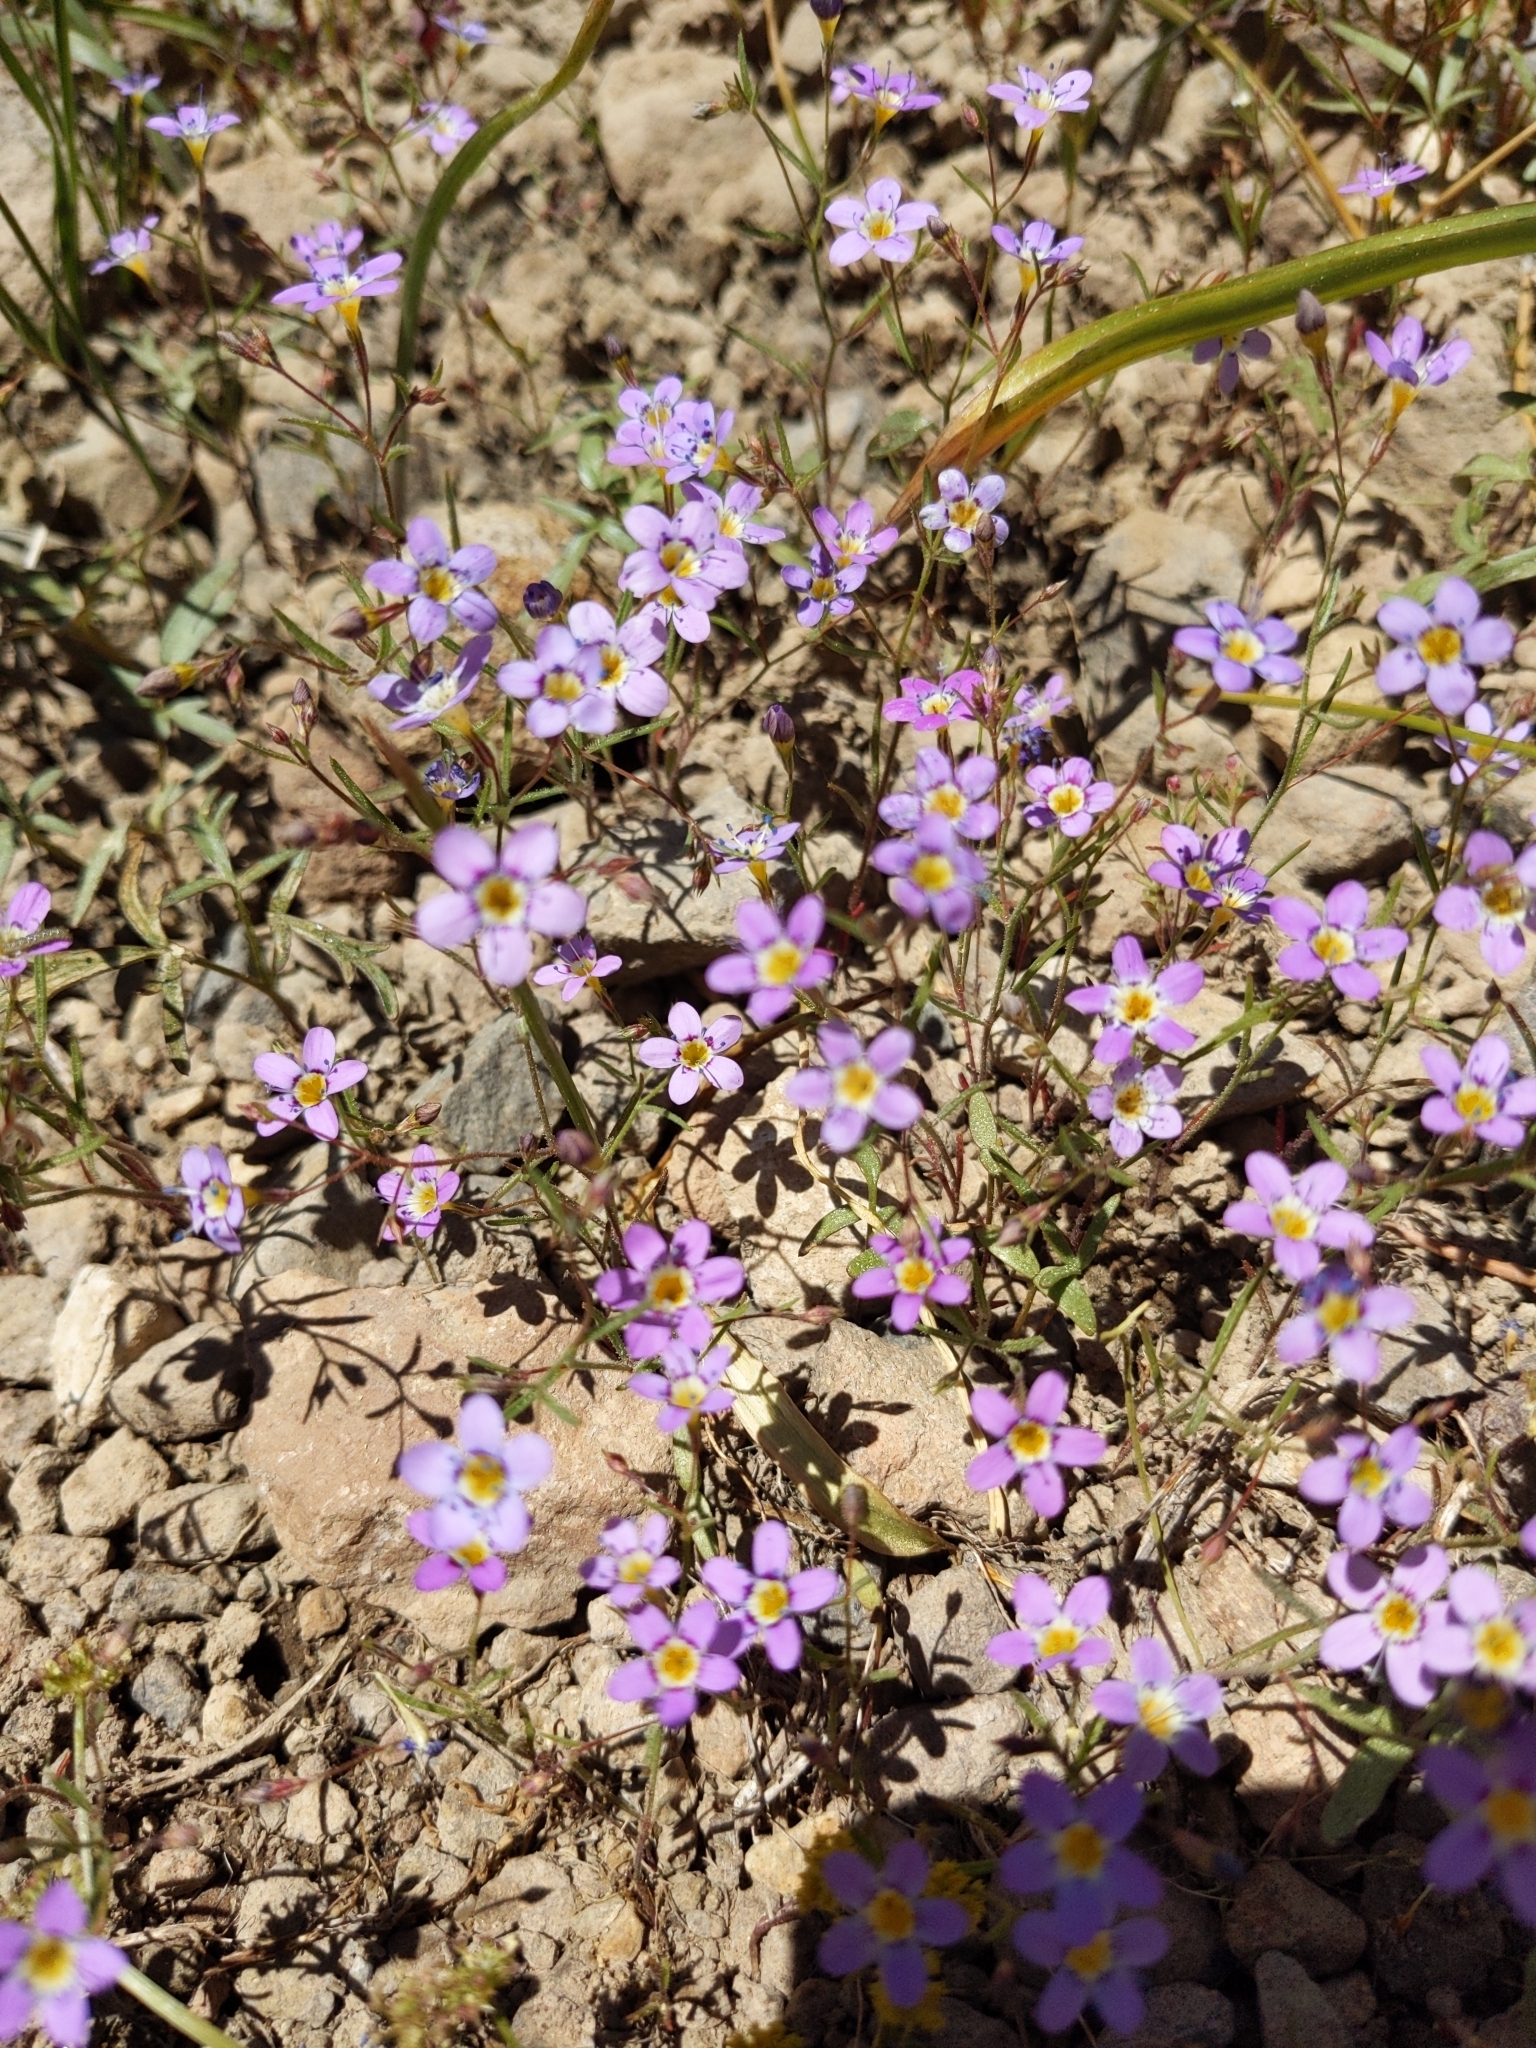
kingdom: Plantae
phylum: Tracheophyta
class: Magnoliopsida
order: Ericales
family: Polemoniaceae
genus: Navarretia
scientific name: Navarretia leptalea
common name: Bridges' pincushionplant
